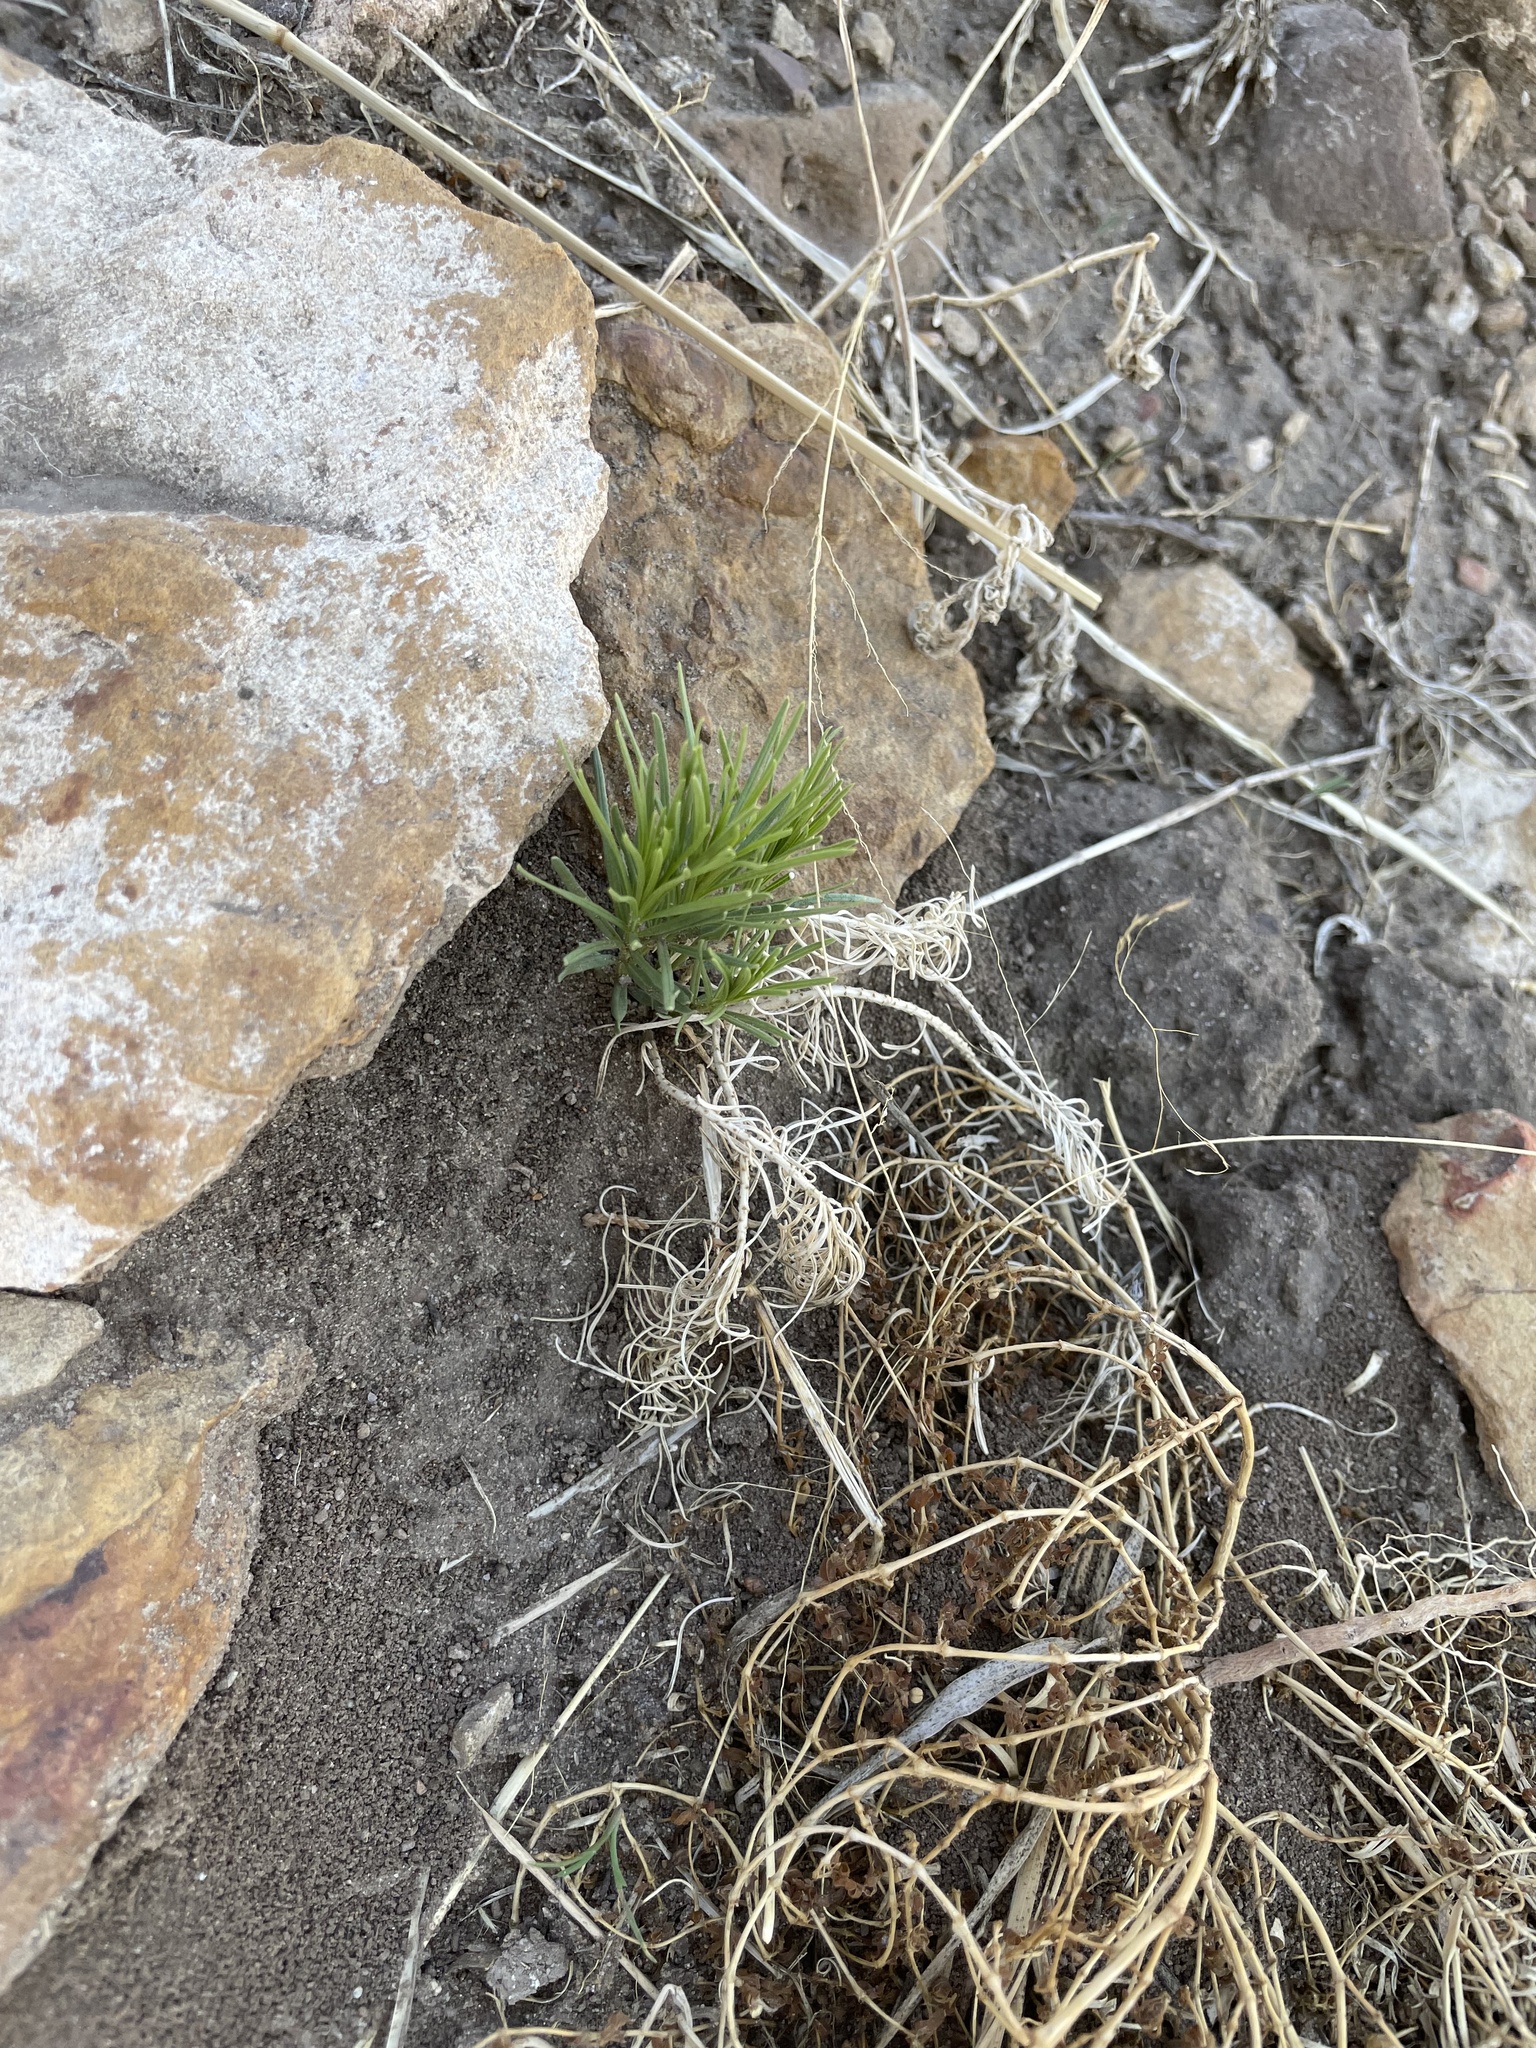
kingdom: Plantae
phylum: Tracheophyta
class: Magnoliopsida
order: Gentianales
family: Apocynaceae
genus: Asclepias
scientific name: Asclepias pumila
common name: Dwarf milkweed
